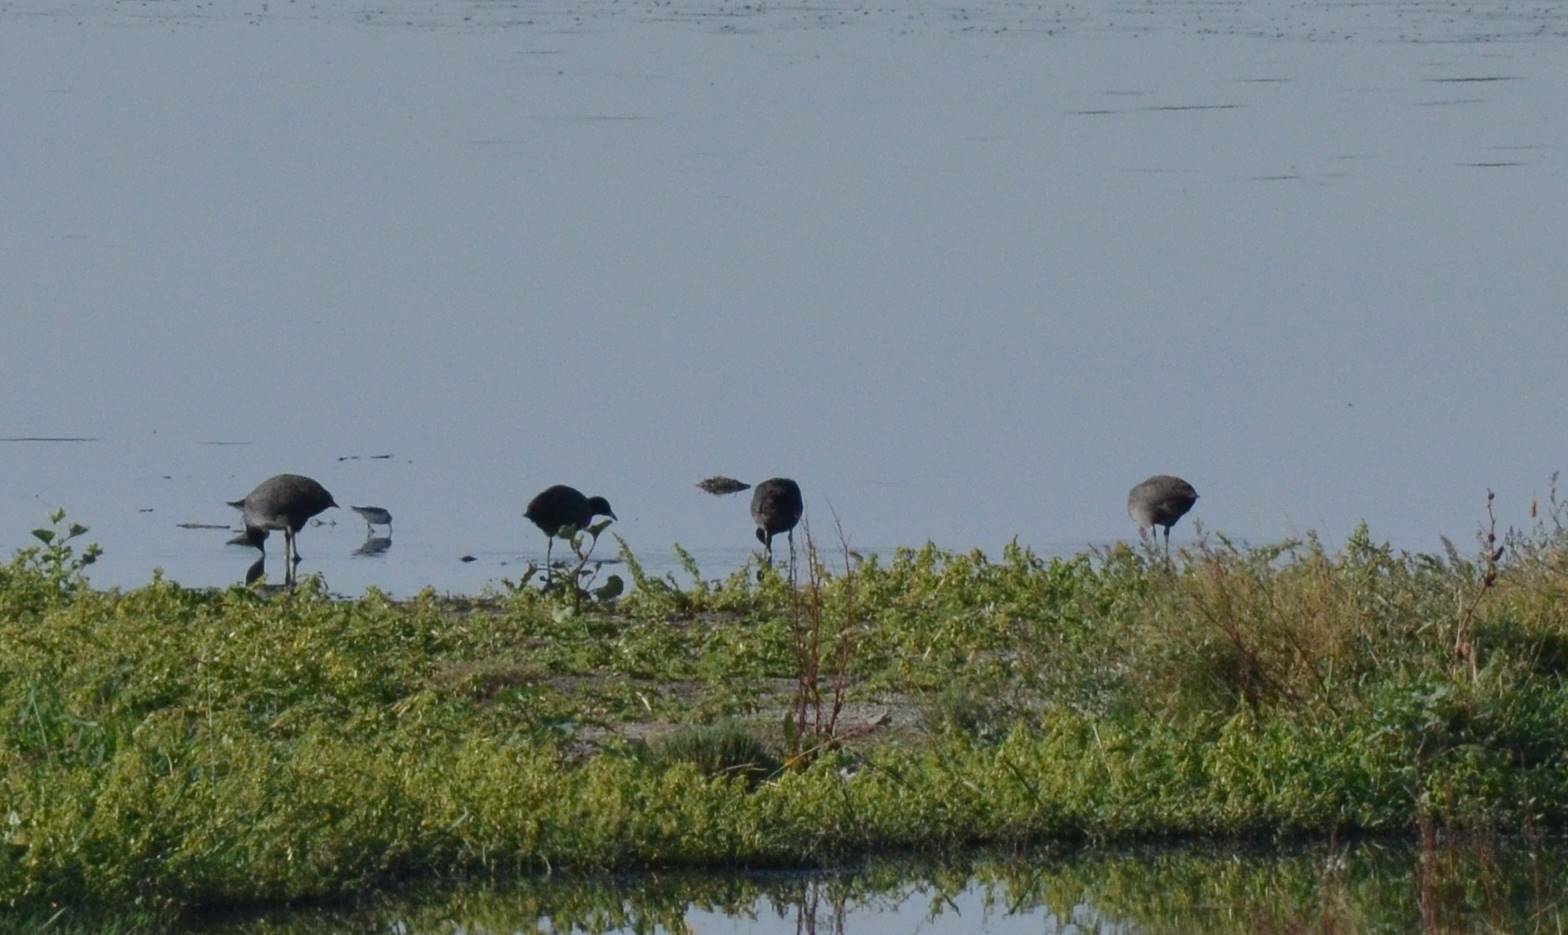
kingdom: Animalia
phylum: Chordata
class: Aves
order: Gruiformes
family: Rallidae
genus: Fulica
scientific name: Fulica atra
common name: Eurasian coot
